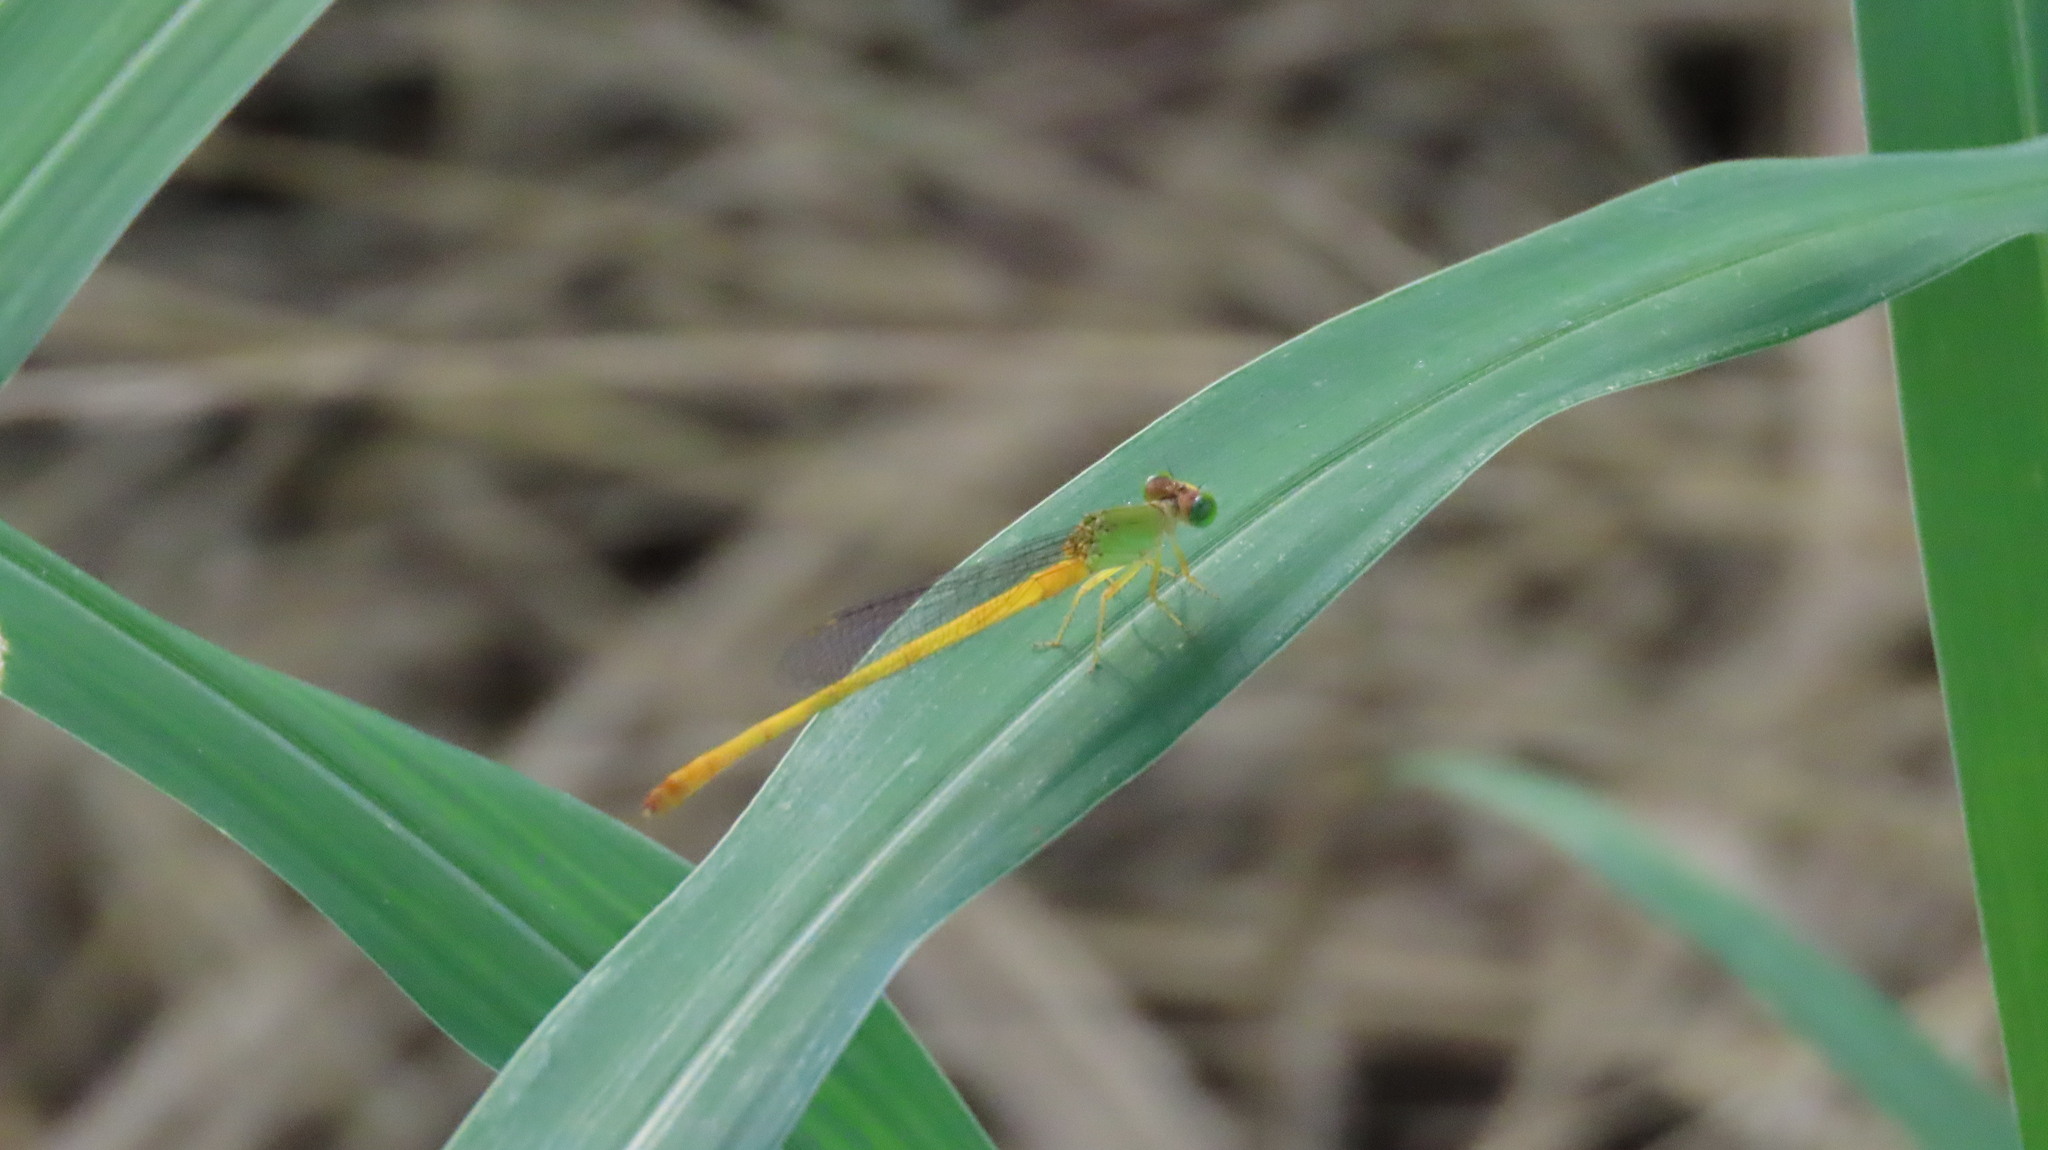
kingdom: Animalia
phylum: Arthropoda
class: Insecta
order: Odonata
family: Coenagrionidae
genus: Ceriagrion
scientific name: Ceriagrion coromandelianum
